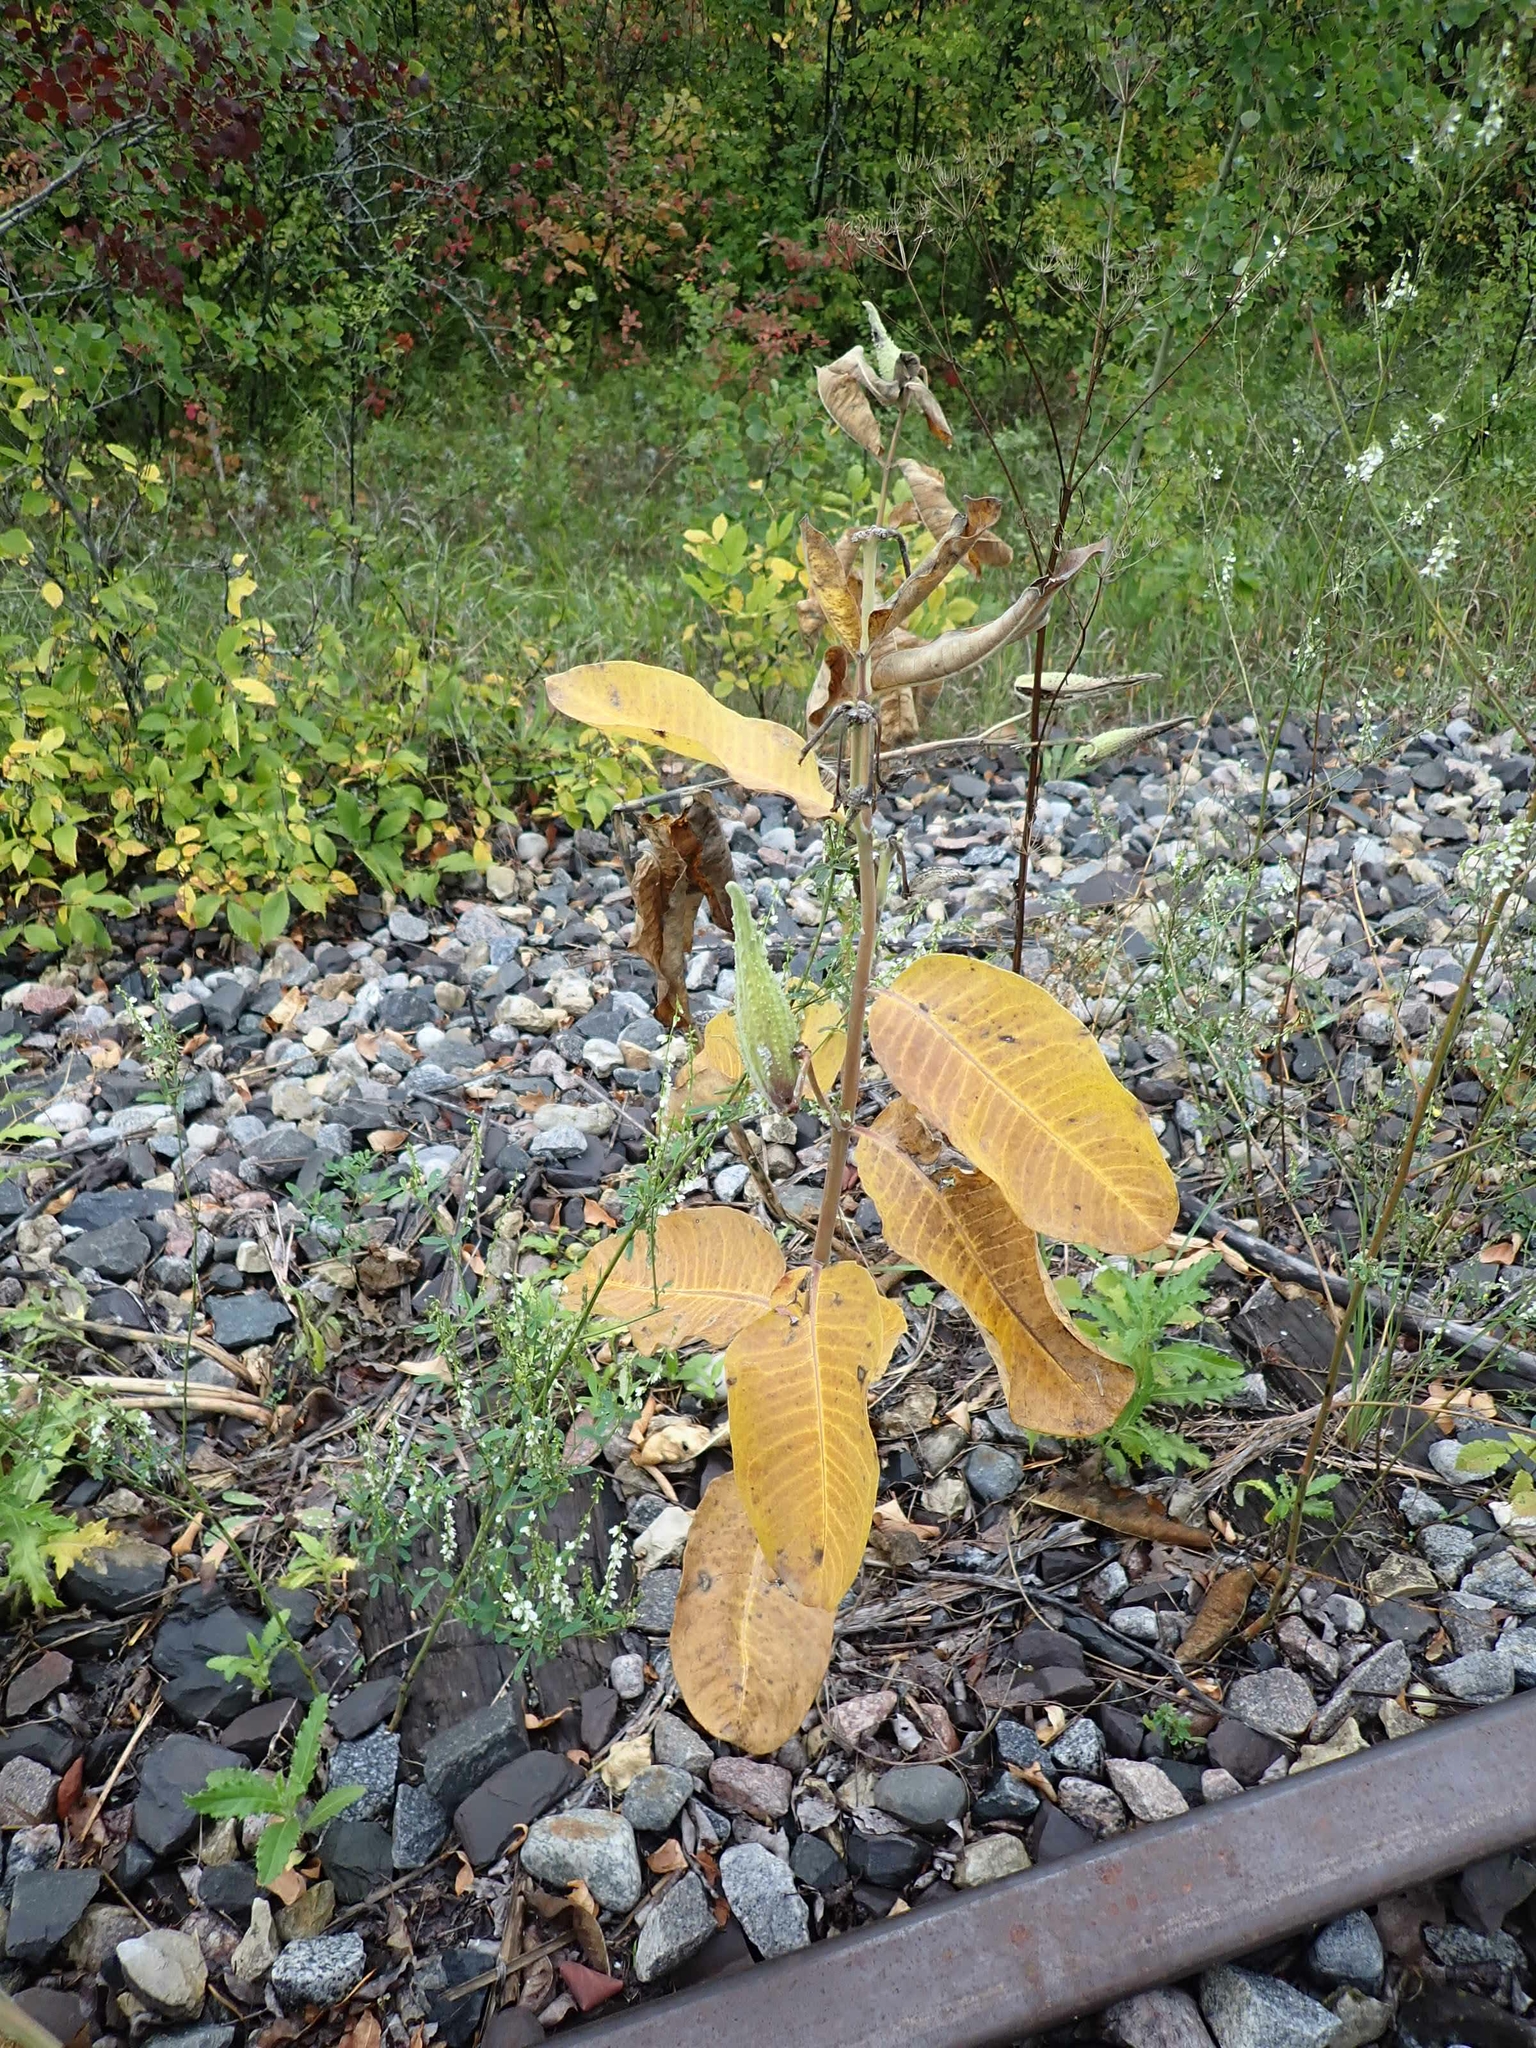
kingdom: Plantae
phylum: Tracheophyta
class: Magnoliopsida
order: Gentianales
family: Apocynaceae
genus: Asclepias
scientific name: Asclepias syriaca
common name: Common milkweed
